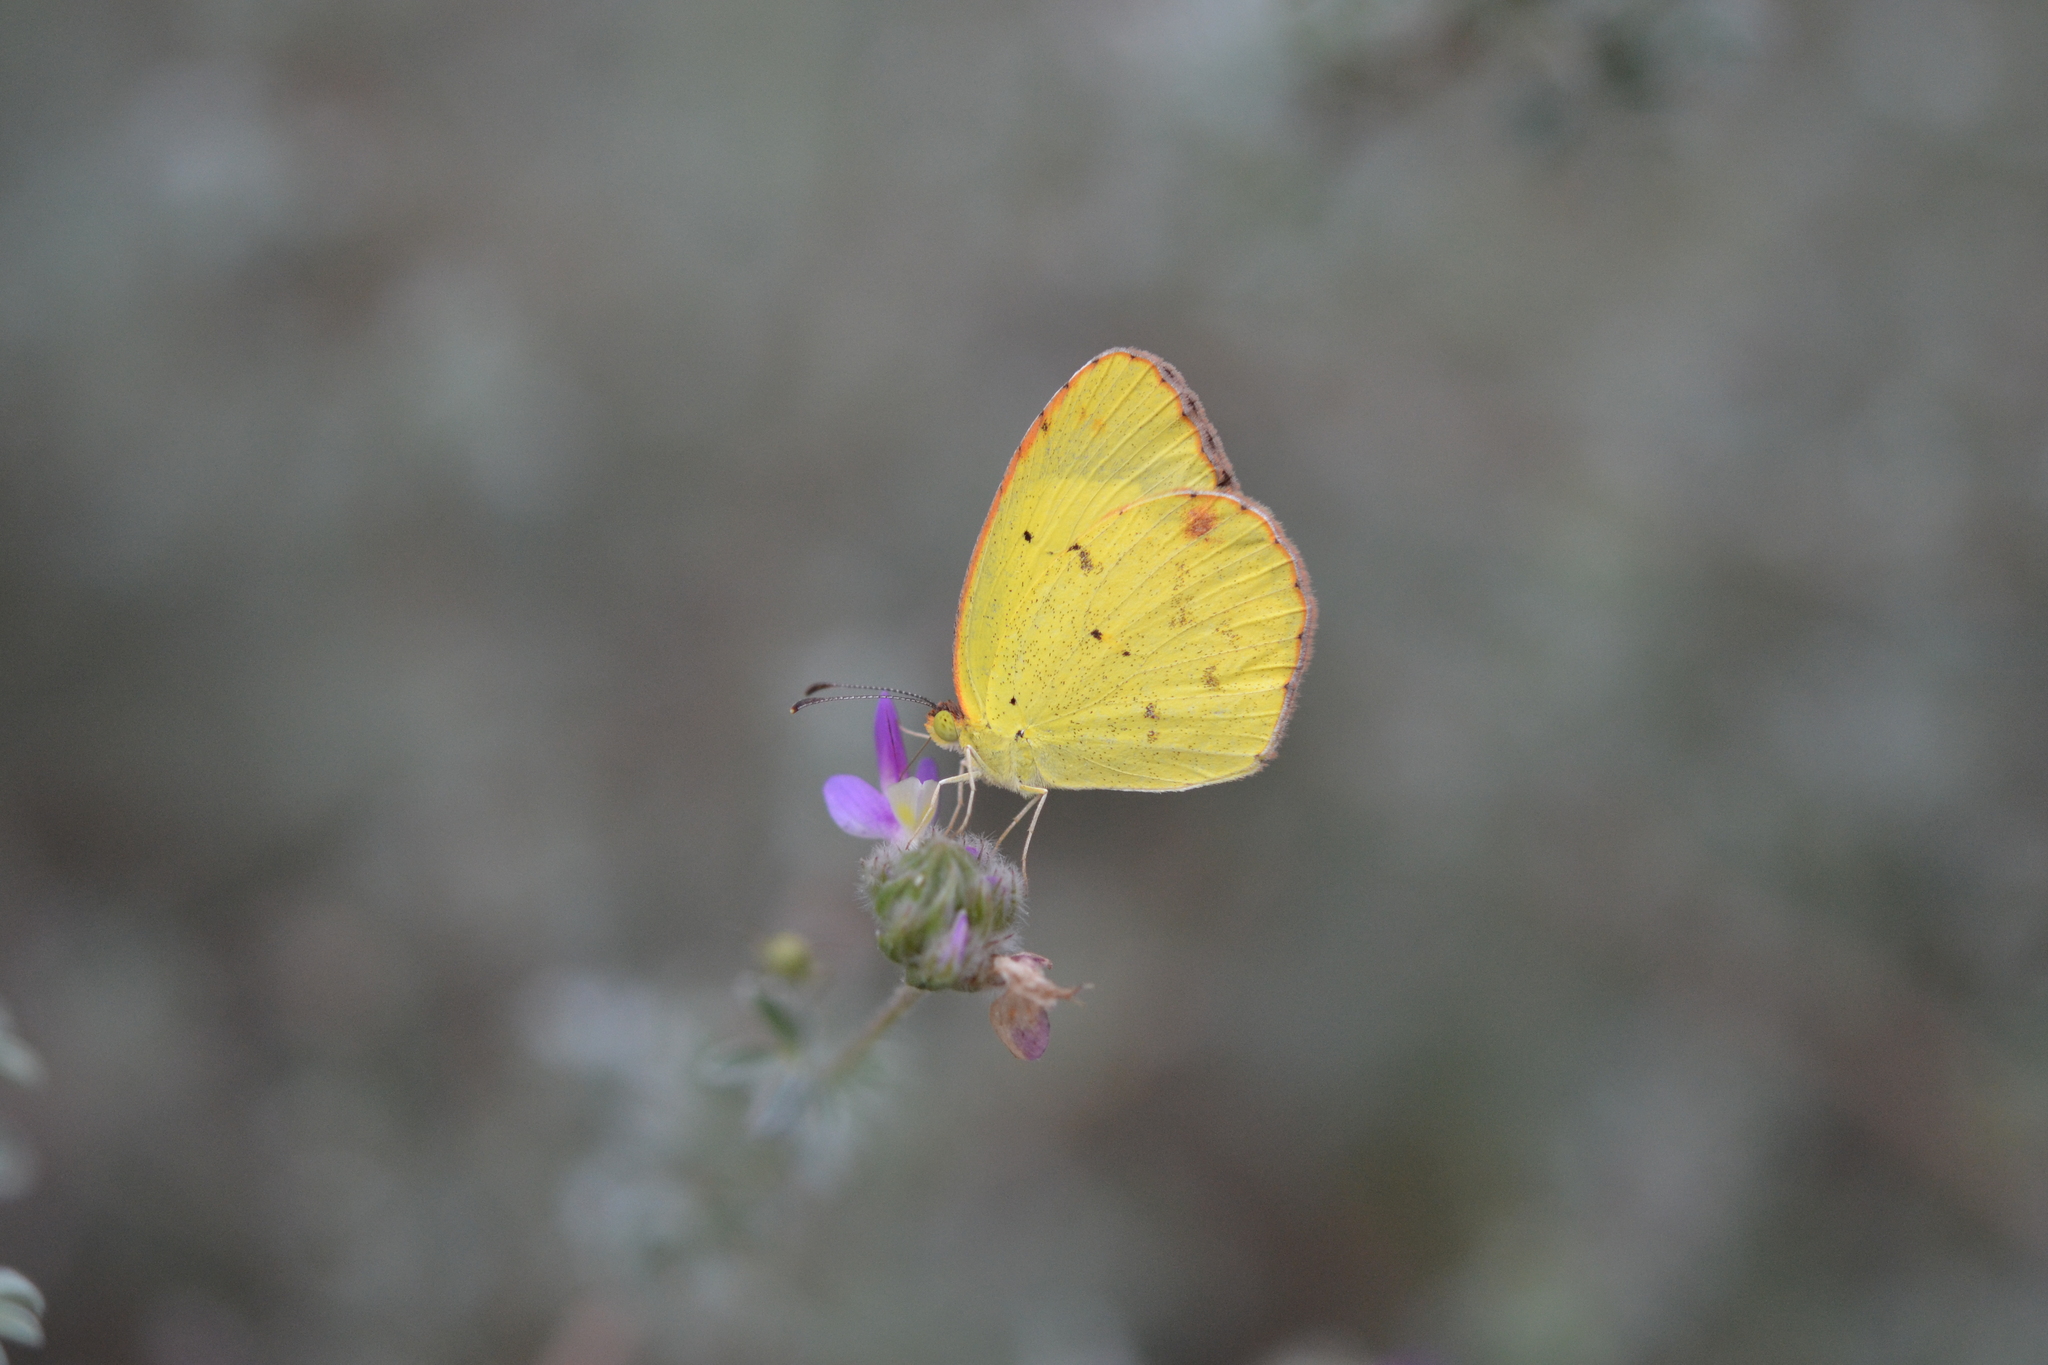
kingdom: Animalia
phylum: Arthropoda
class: Insecta
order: Lepidoptera
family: Pieridae
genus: Pyrisitia
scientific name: Pyrisitia lisa
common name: Little yellow
